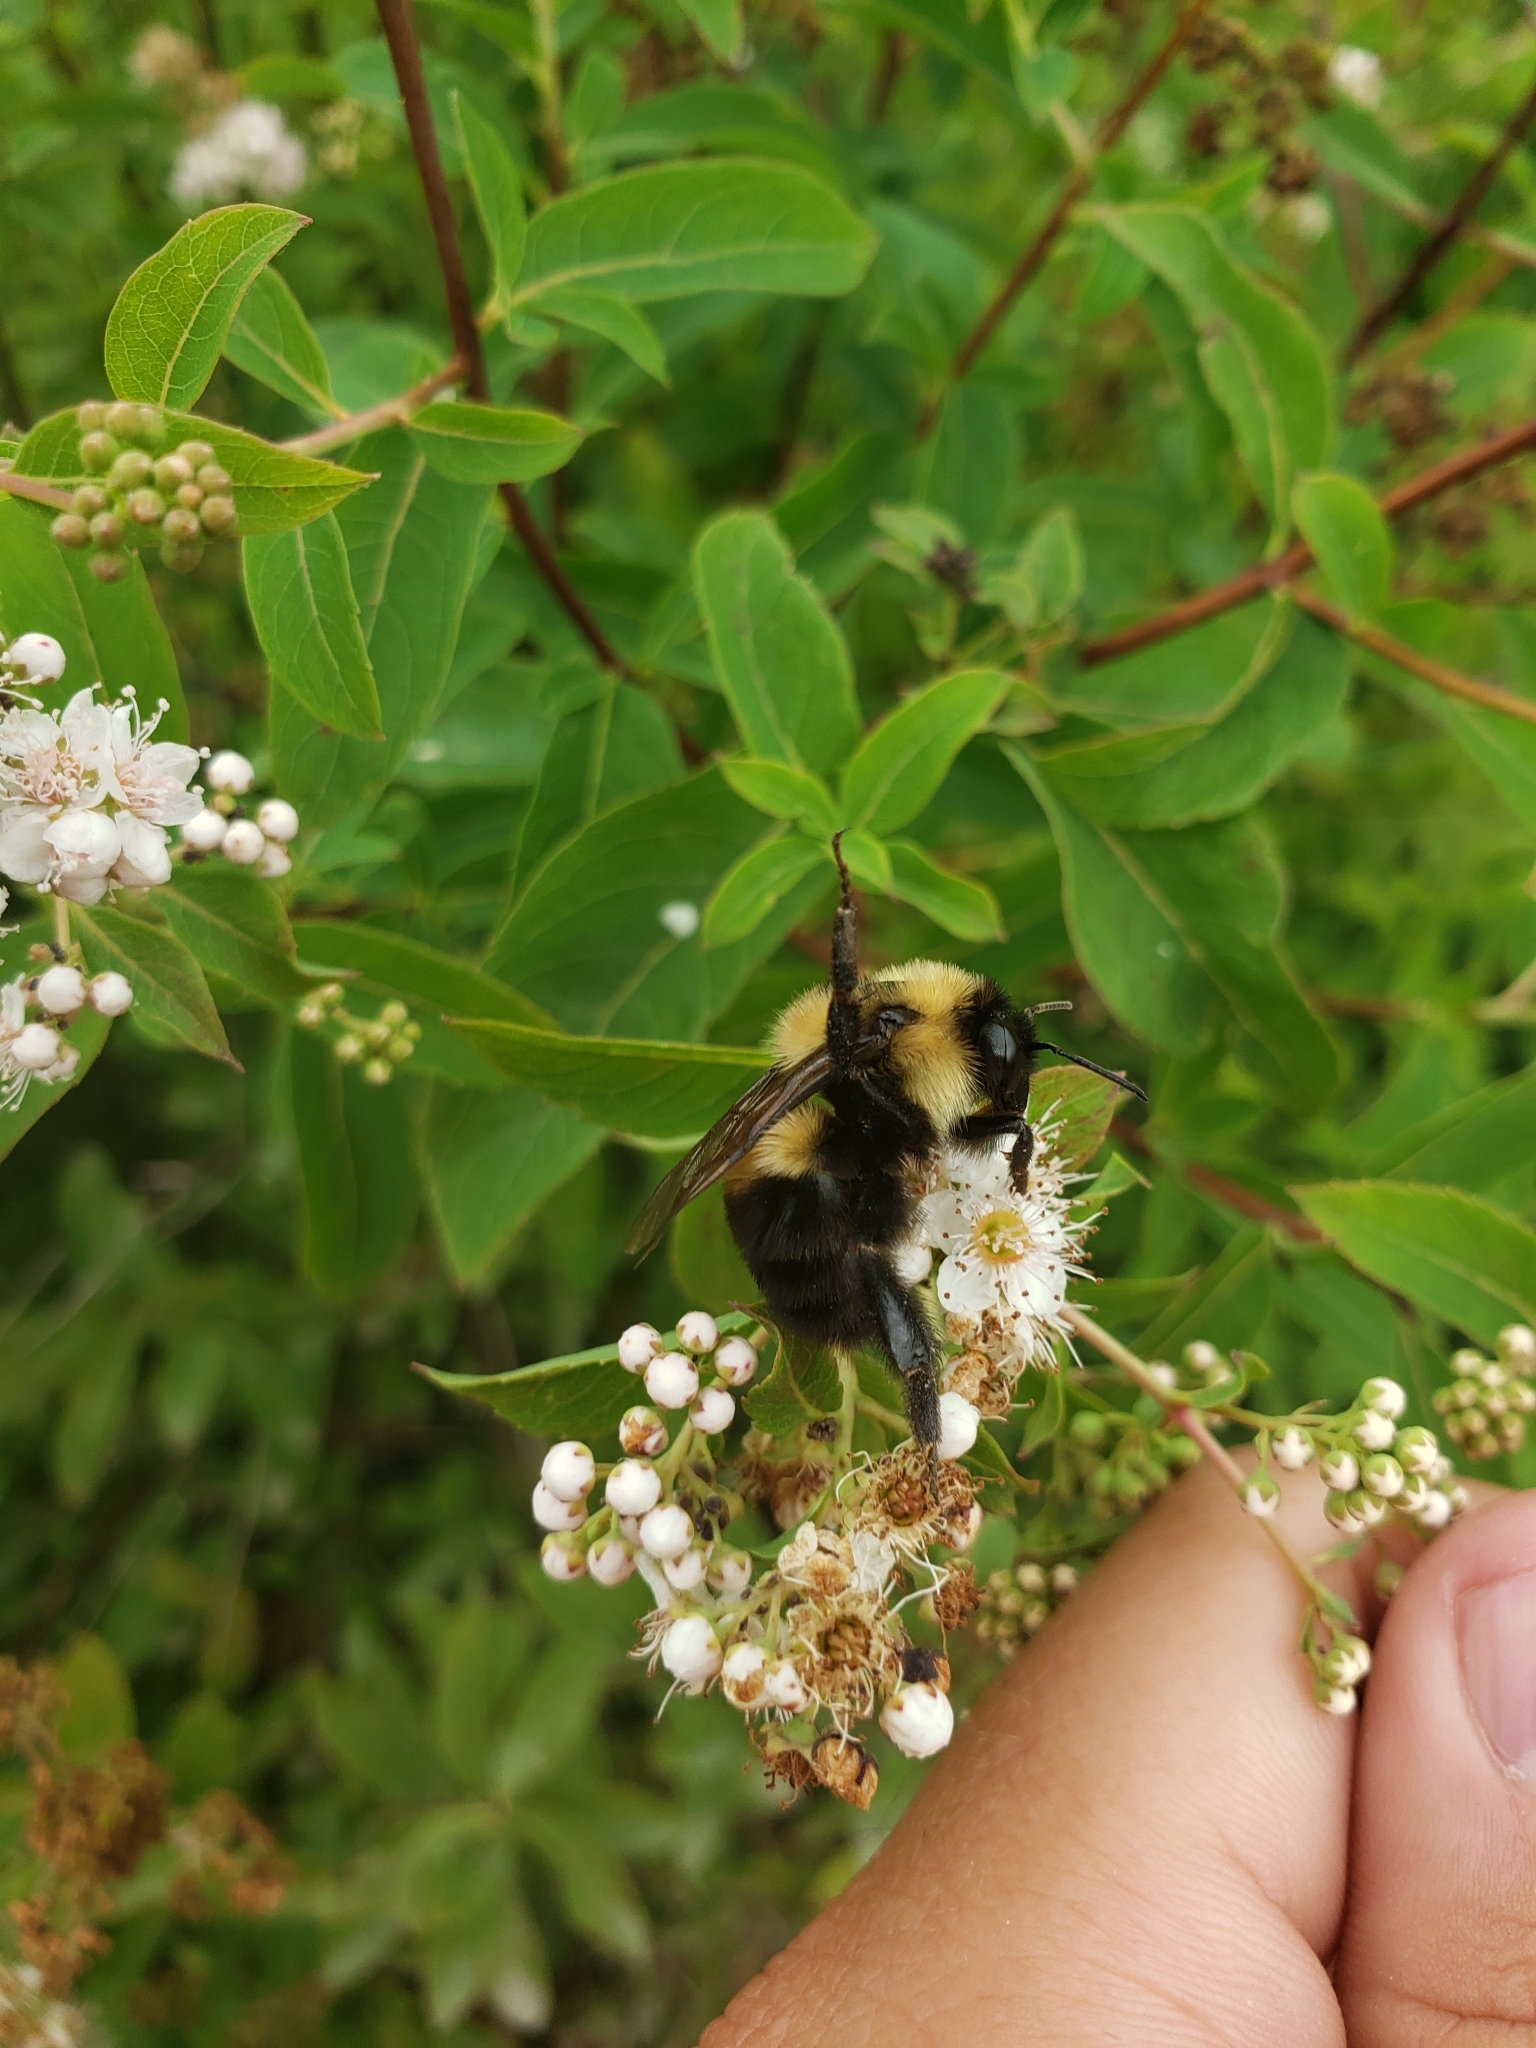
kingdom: Animalia
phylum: Arthropoda
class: Insecta
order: Hymenoptera
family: Apidae
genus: Bombus
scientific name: Bombus griseocollis
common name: Brown-belted bumble bee
